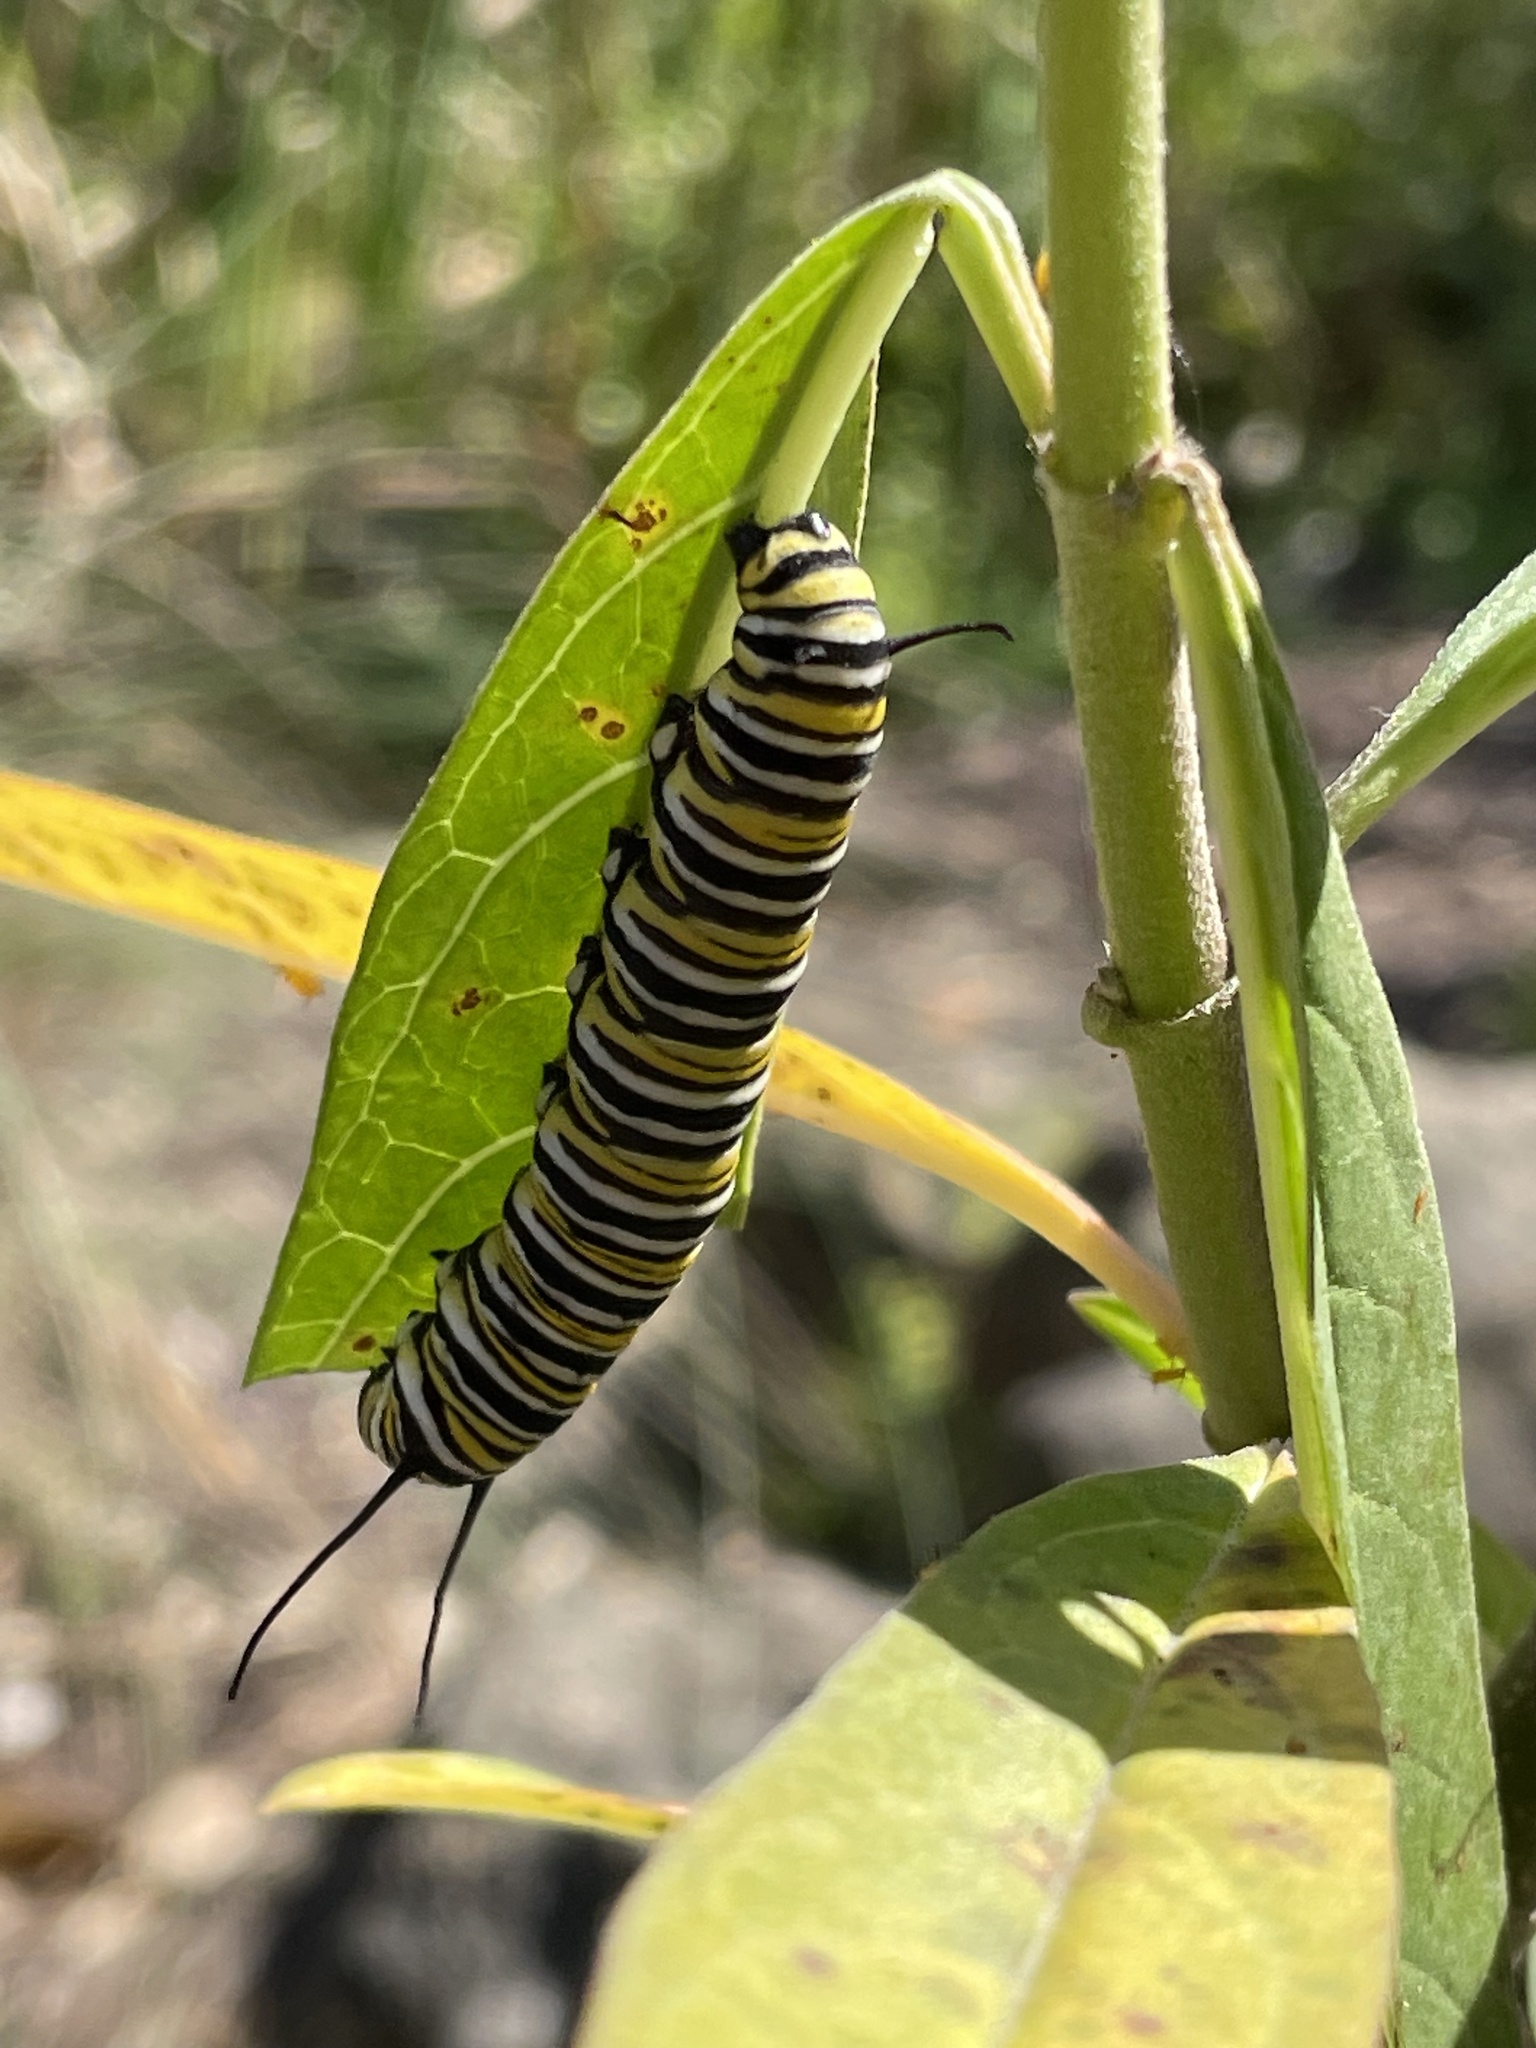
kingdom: Animalia
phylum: Arthropoda
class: Insecta
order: Lepidoptera
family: Nymphalidae
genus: Danaus
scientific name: Danaus plexippus
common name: Monarch
